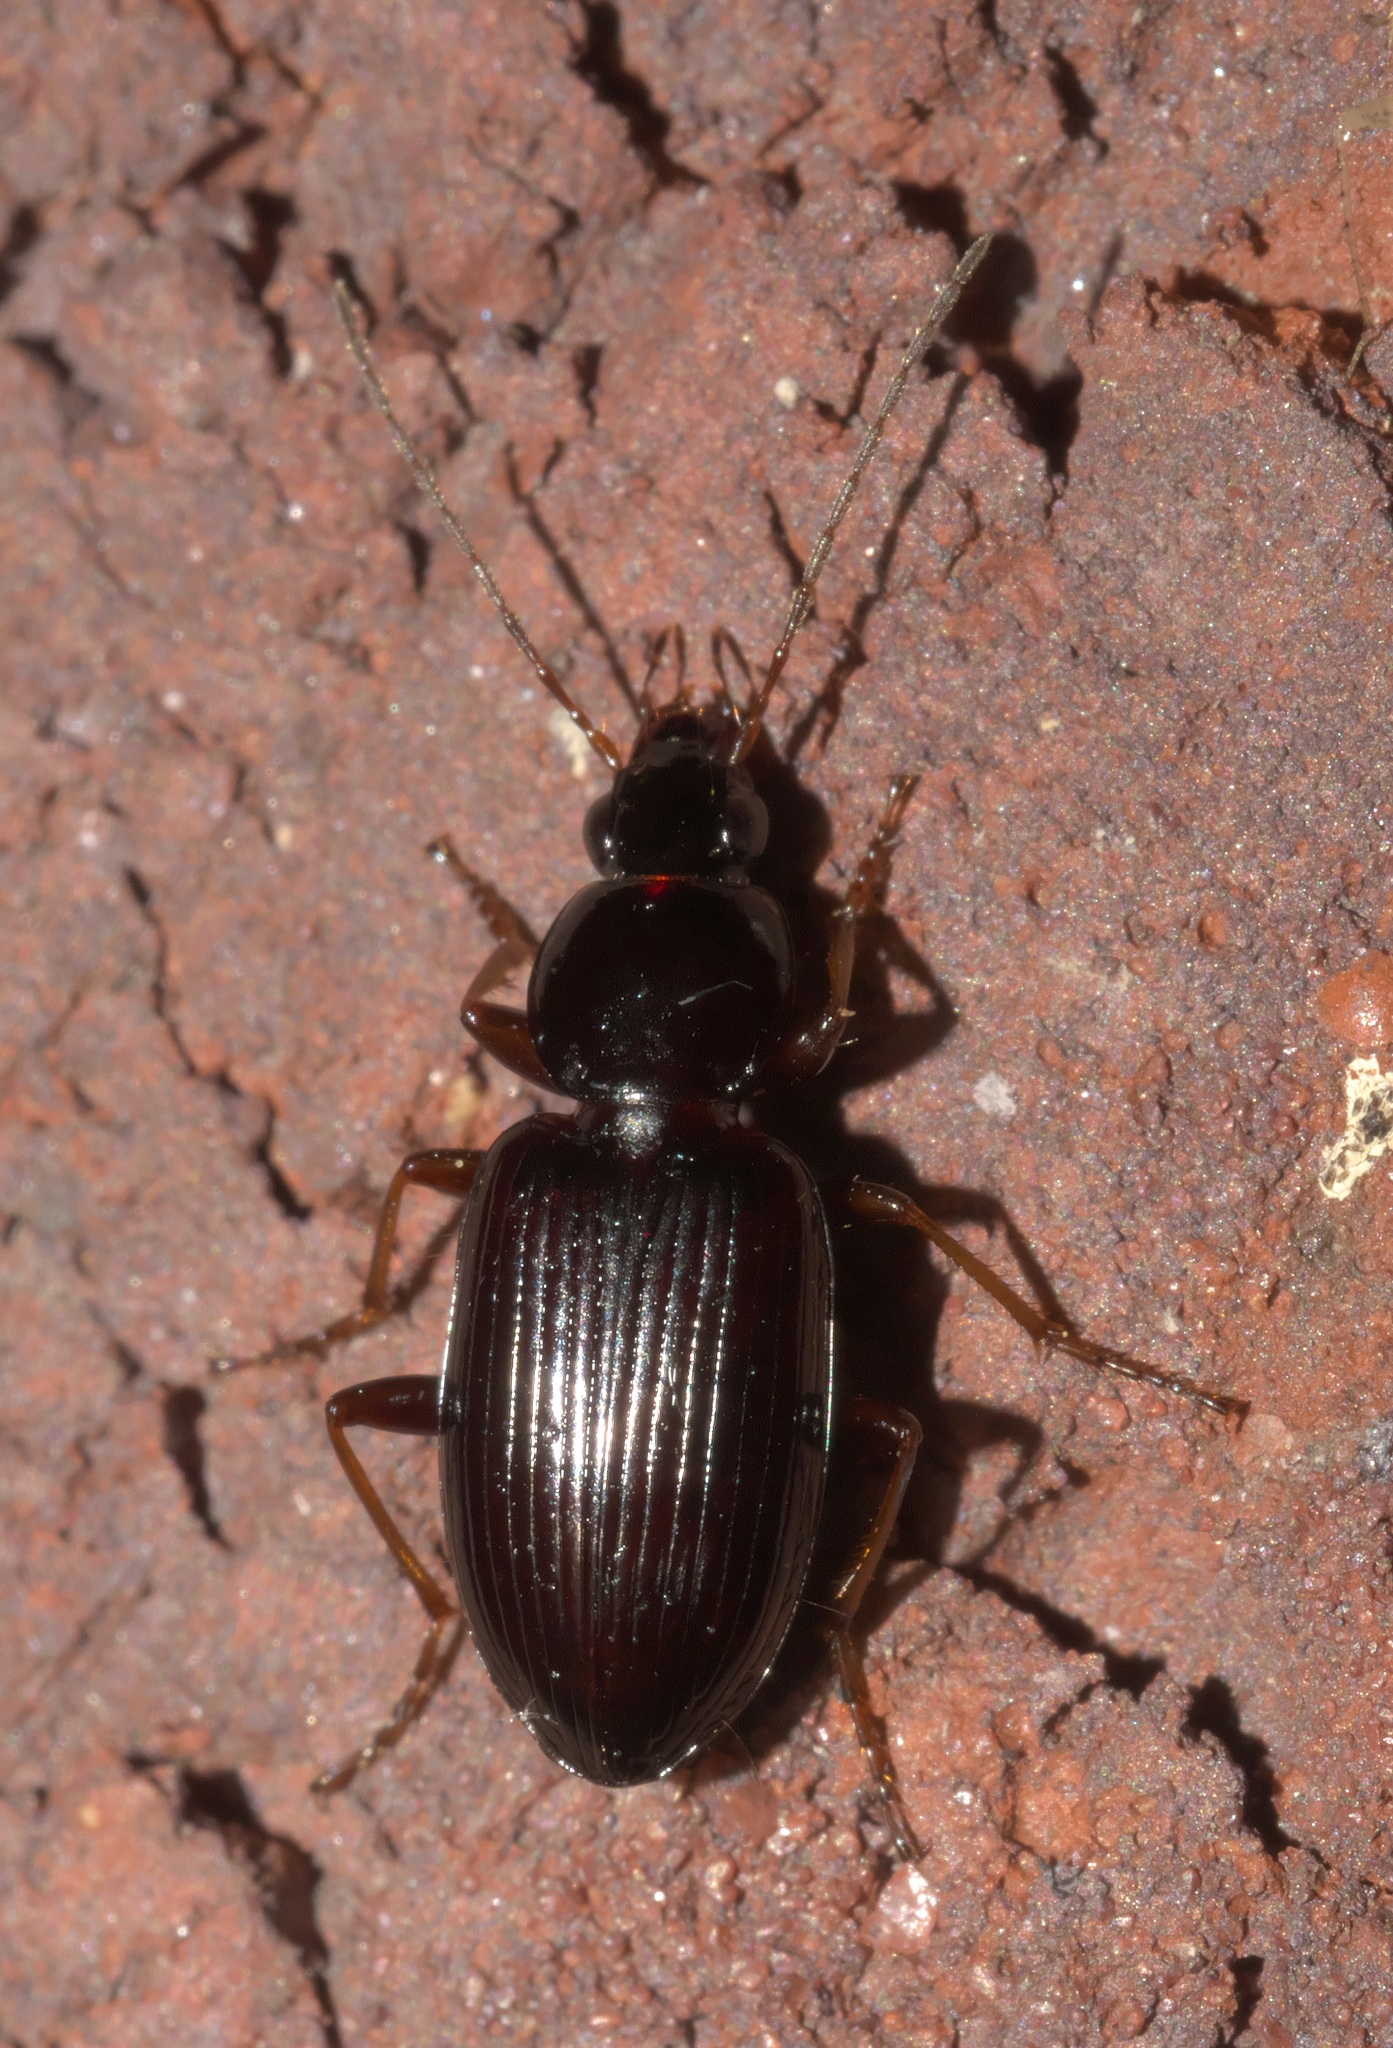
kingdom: Animalia
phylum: Arthropoda
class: Insecta
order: Coleoptera
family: Carabidae
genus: Agonum
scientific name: Agonum punctiforme
